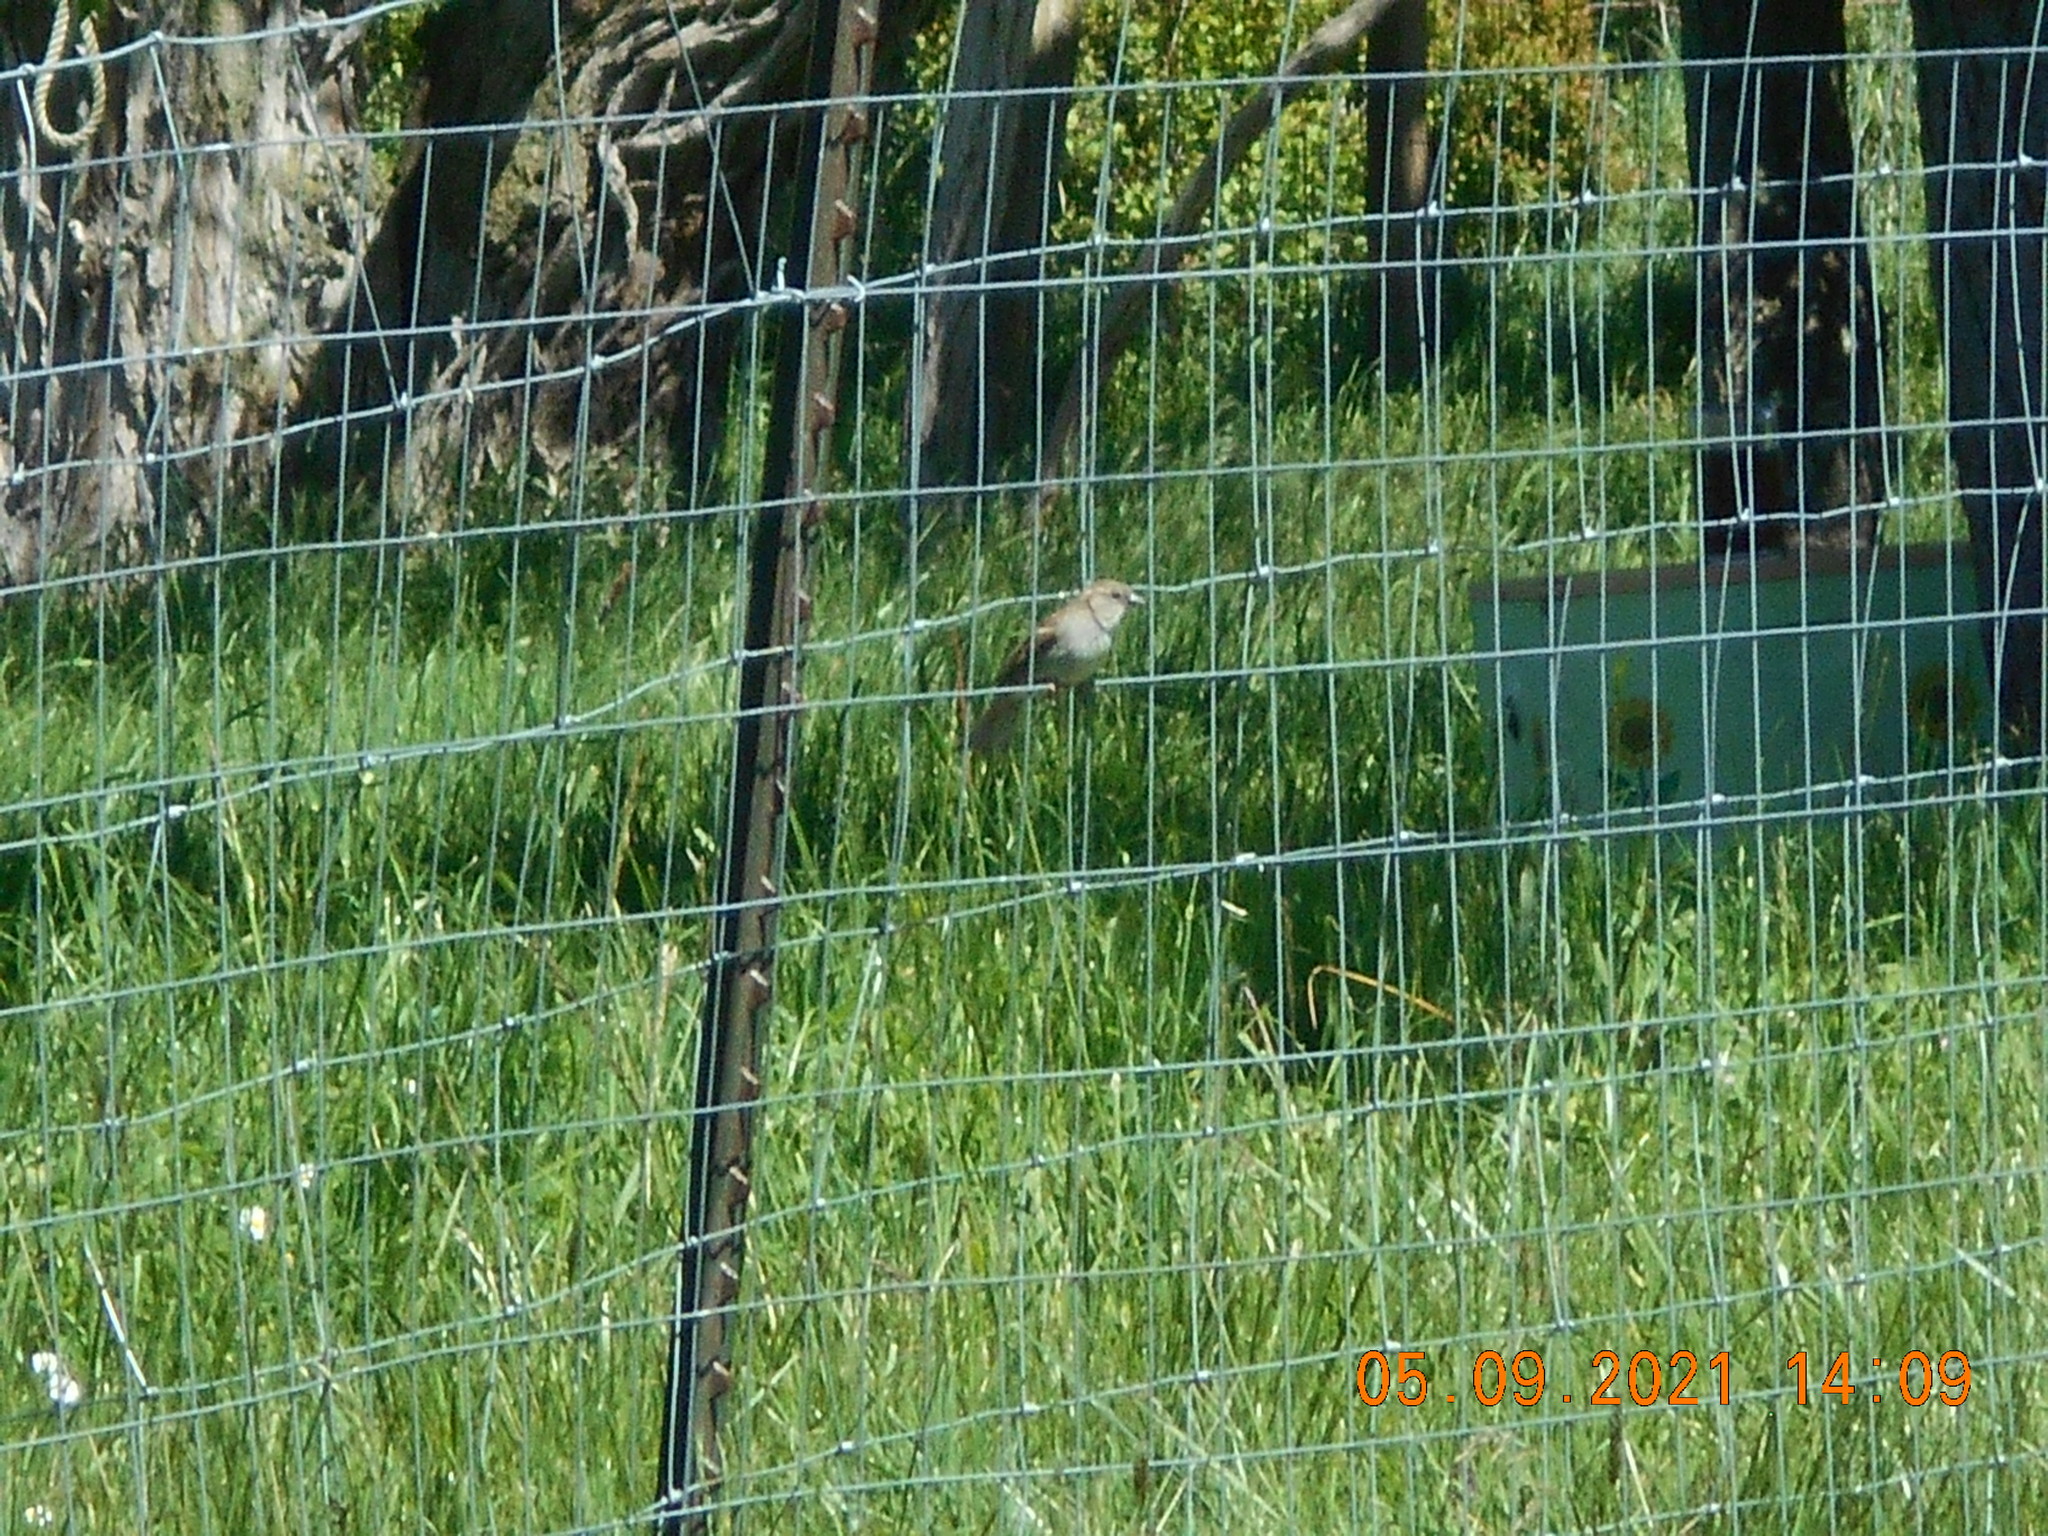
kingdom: Animalia
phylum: Chordata
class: Aves
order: Passeriformes
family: Passeridae
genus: Passer
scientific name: Passer domesticus
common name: House sparrow
